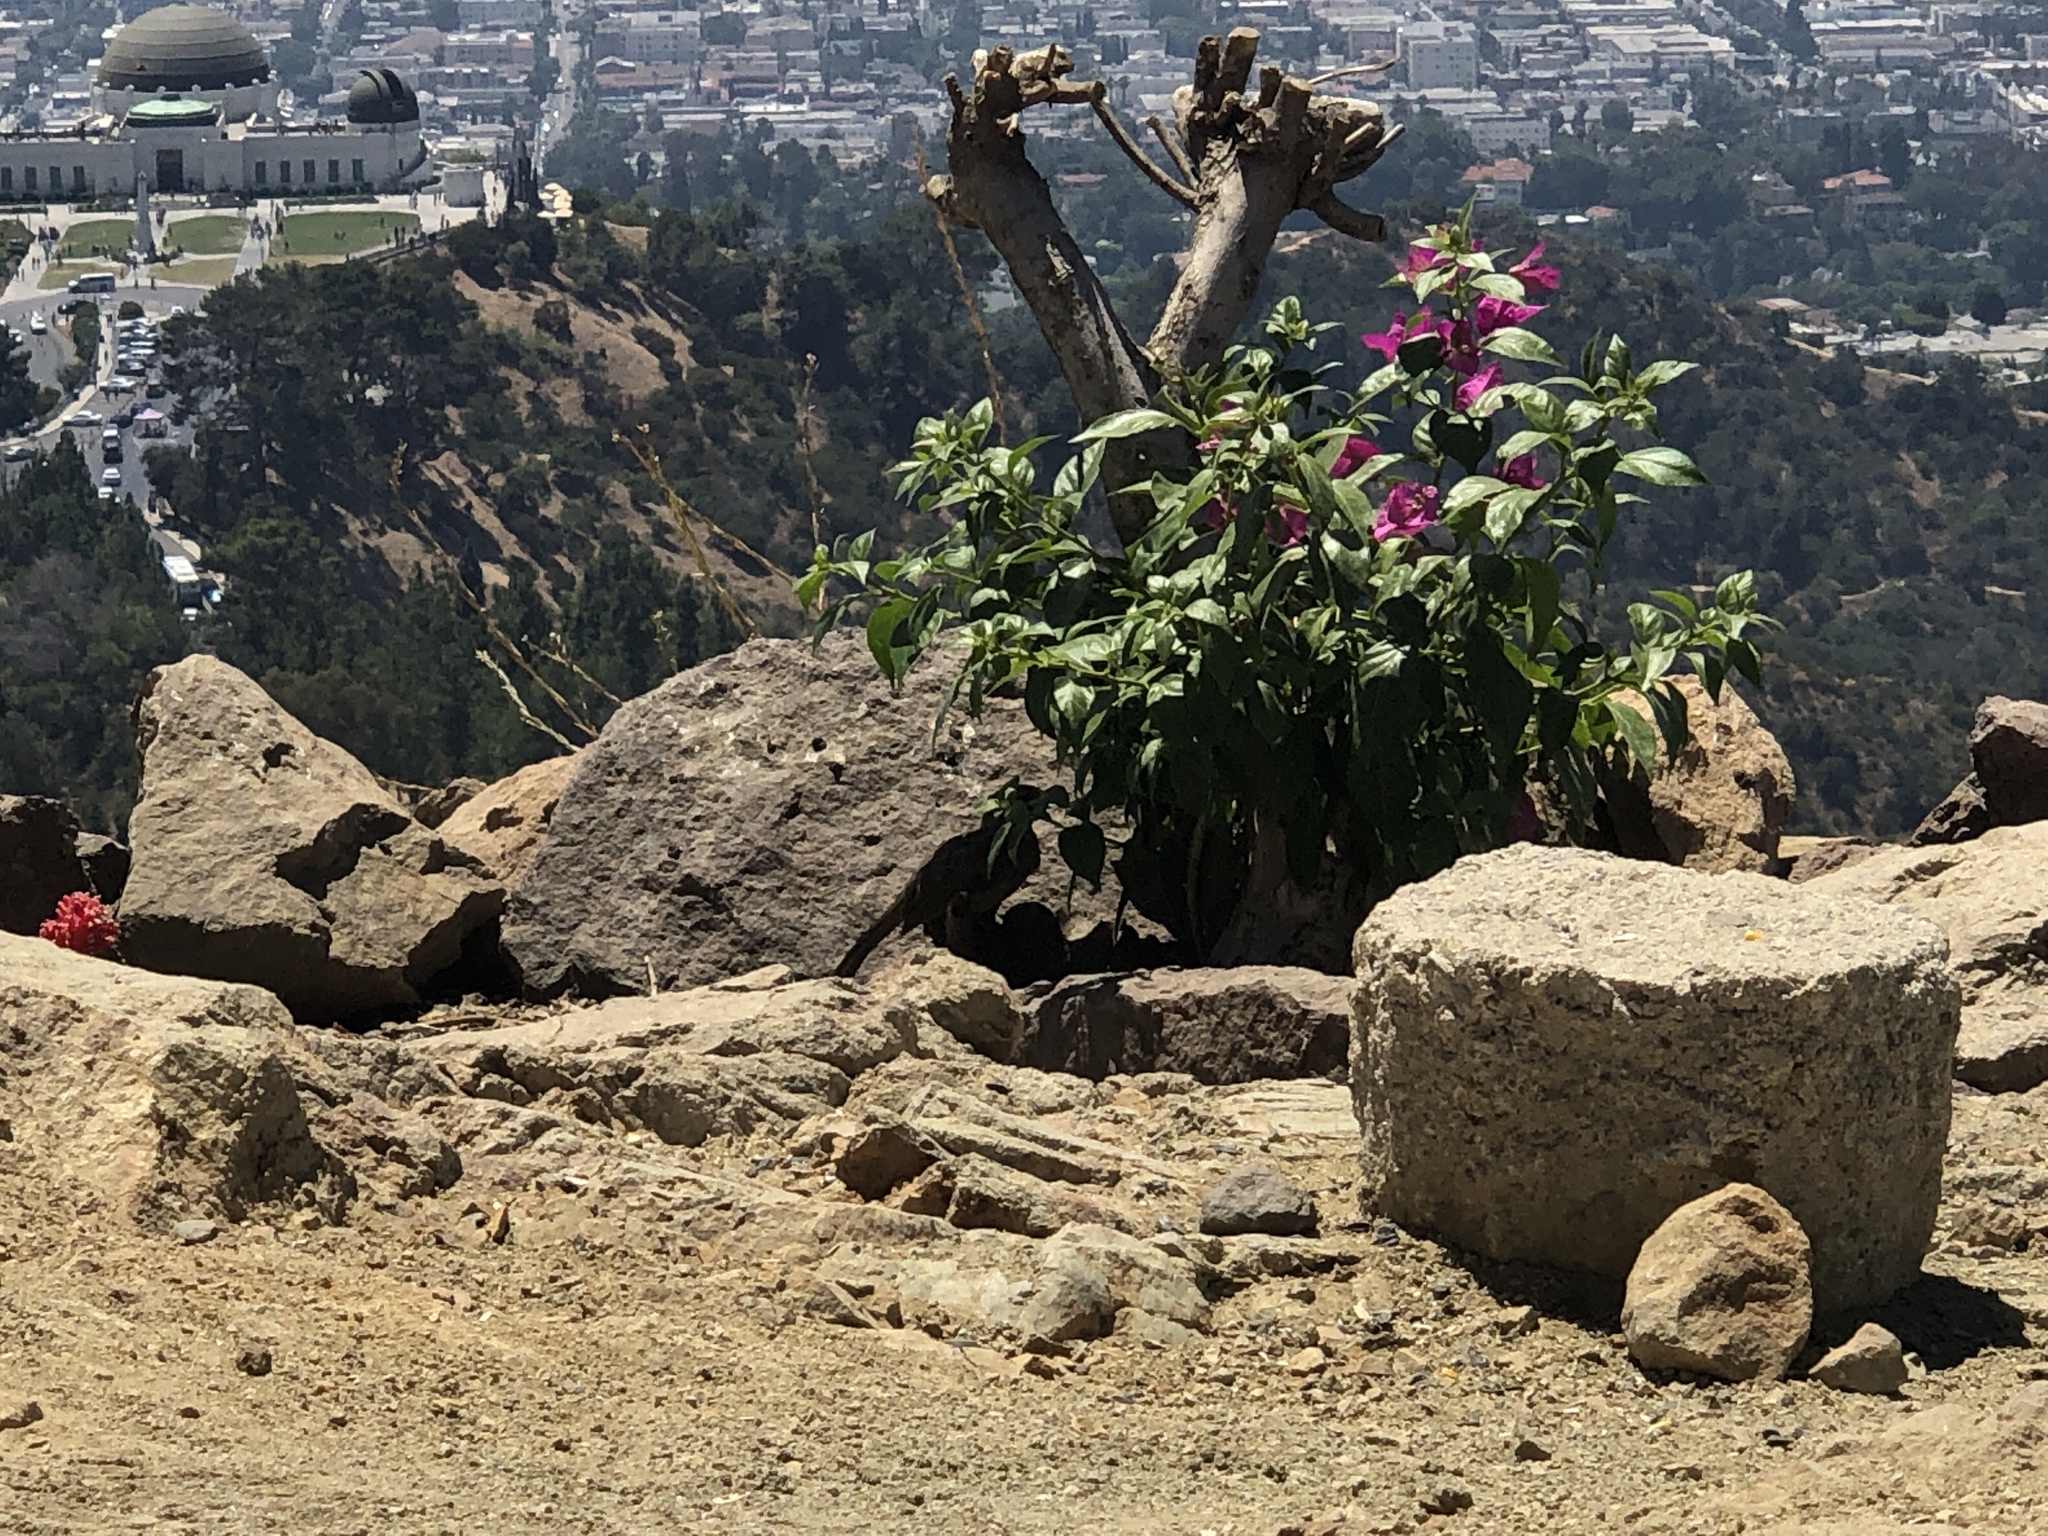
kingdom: Animalia
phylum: Chordata
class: Aves
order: Passeriformes
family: Icteridae
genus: Euphagus
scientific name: Euphagus cyanocephalus
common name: Brewer's blackbird
